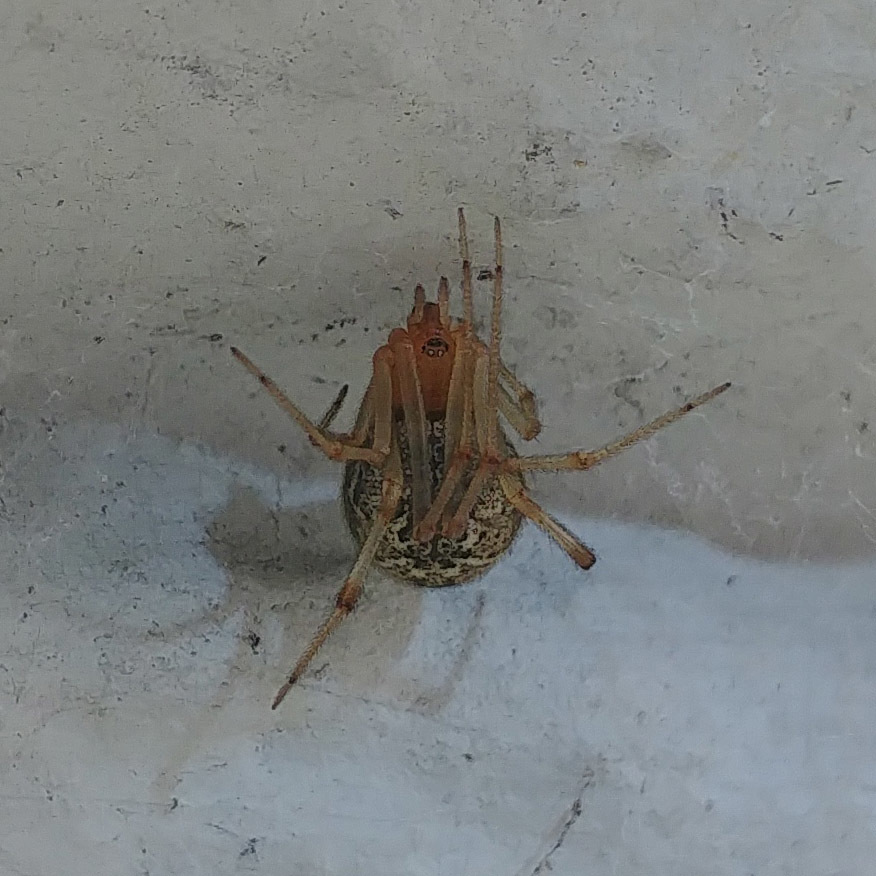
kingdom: Animalia
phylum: Arthropoda
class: Arachnida
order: Araneae
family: Theridiidae
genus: Parasteatoda
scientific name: Parasteatoda tepidariorum
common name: Common house spider
